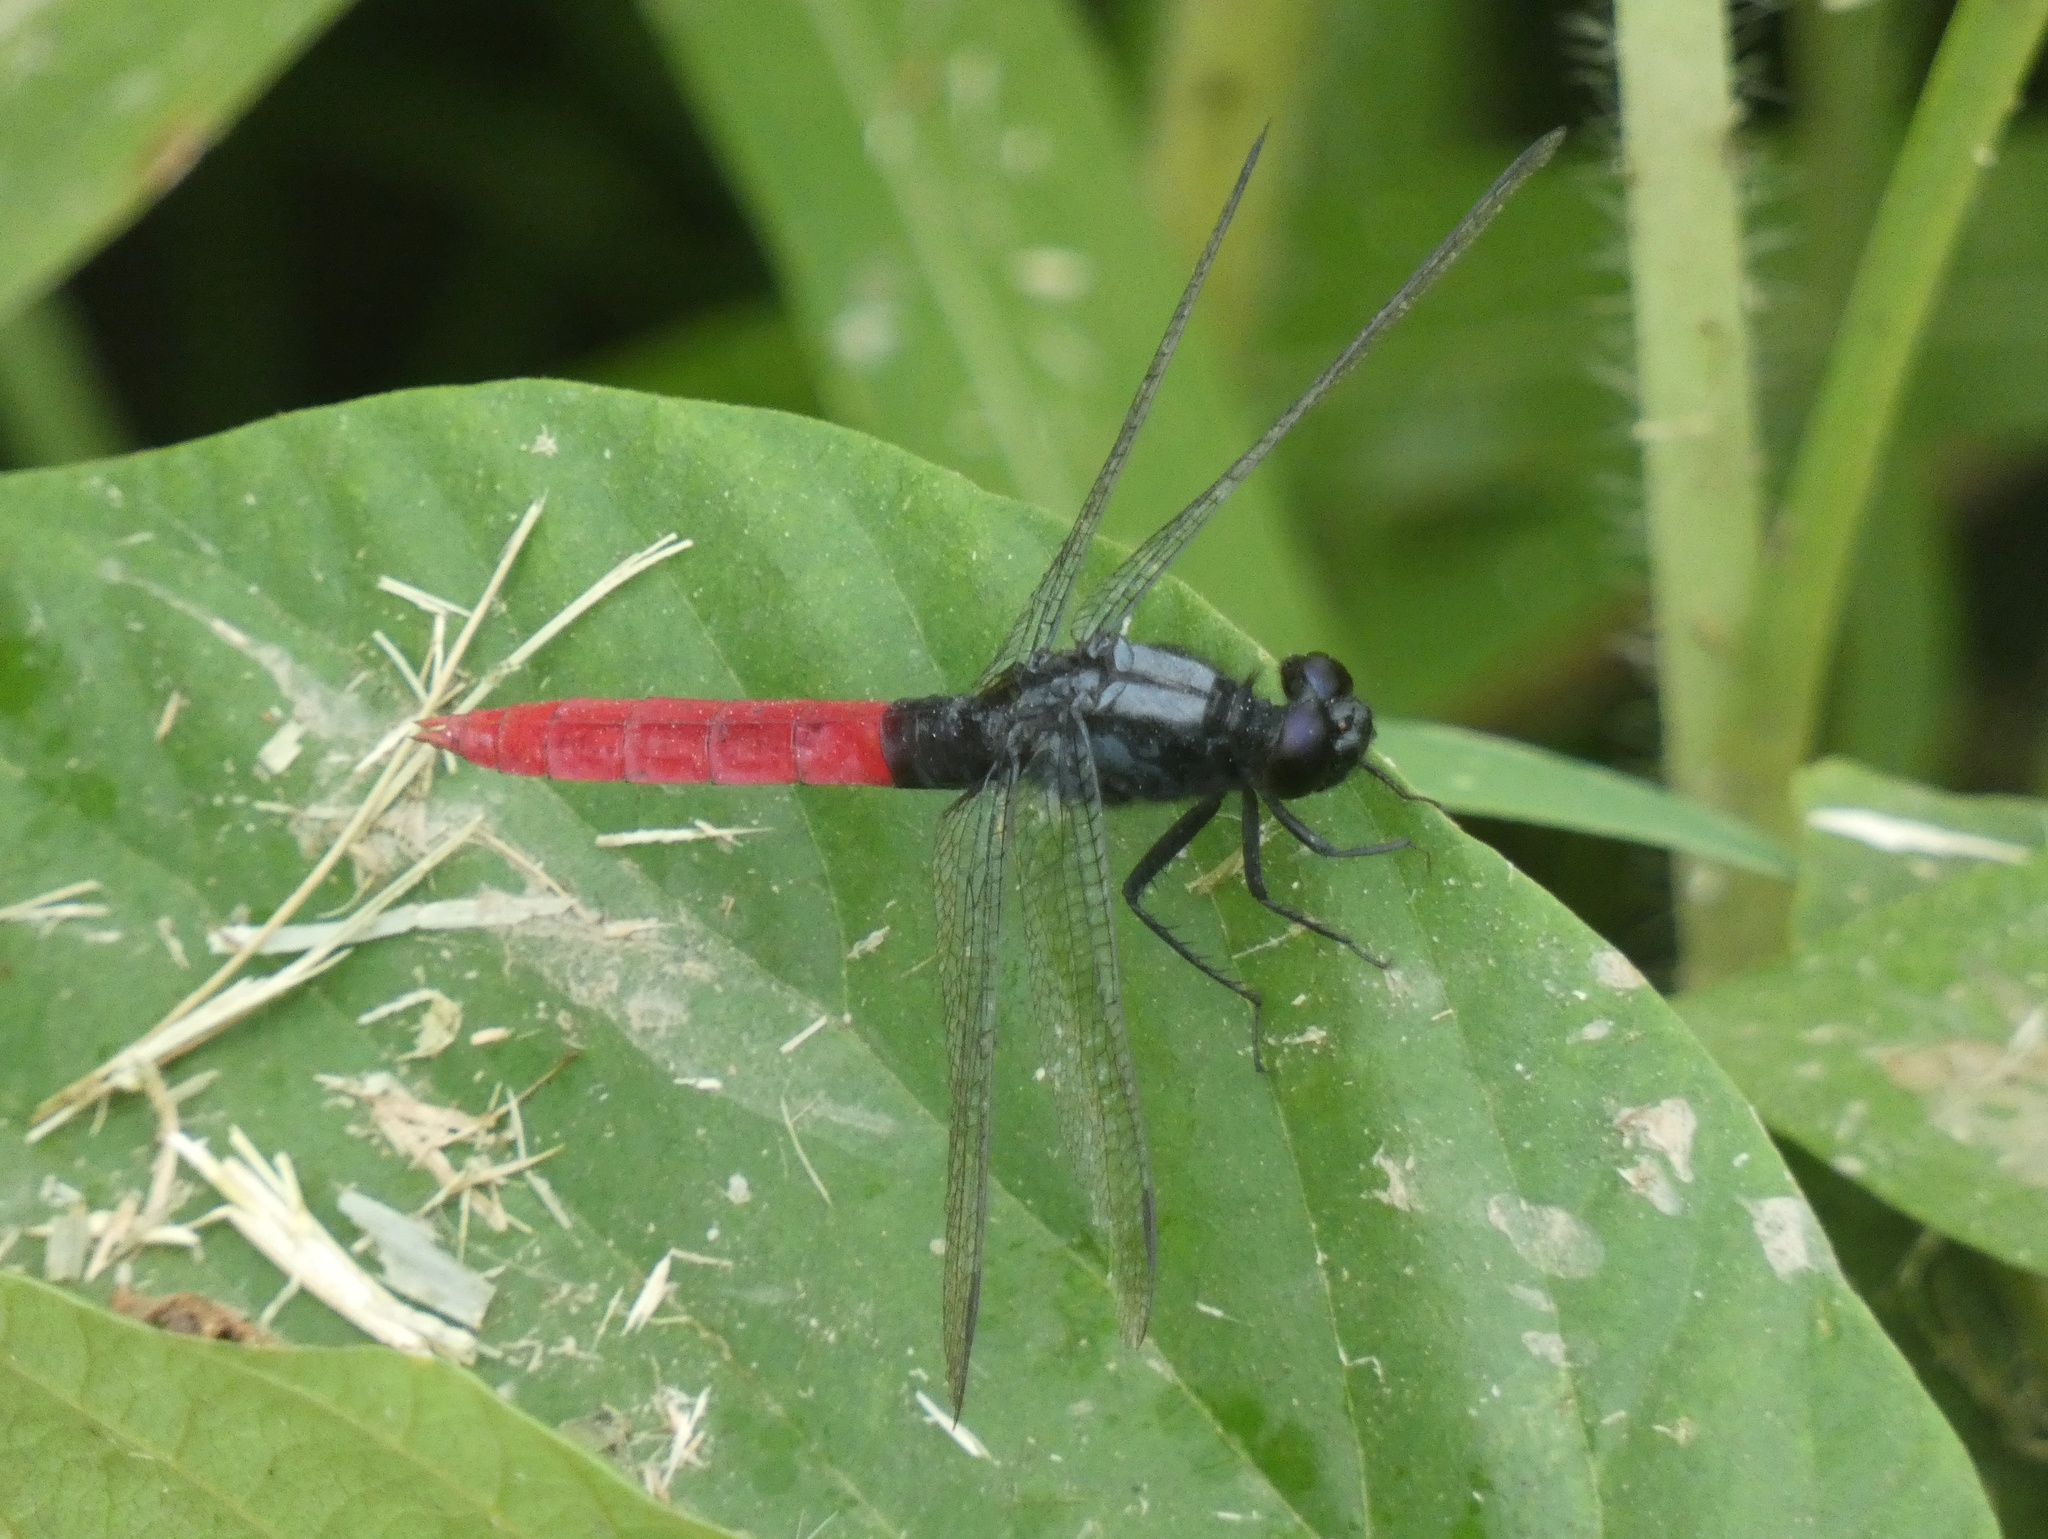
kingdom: Animalia
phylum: Arthropoda
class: Insecta
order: Odonata
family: Libellulidae
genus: Erythemis
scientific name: Erythemis peruviana
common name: Flame-tailed pondhawk
